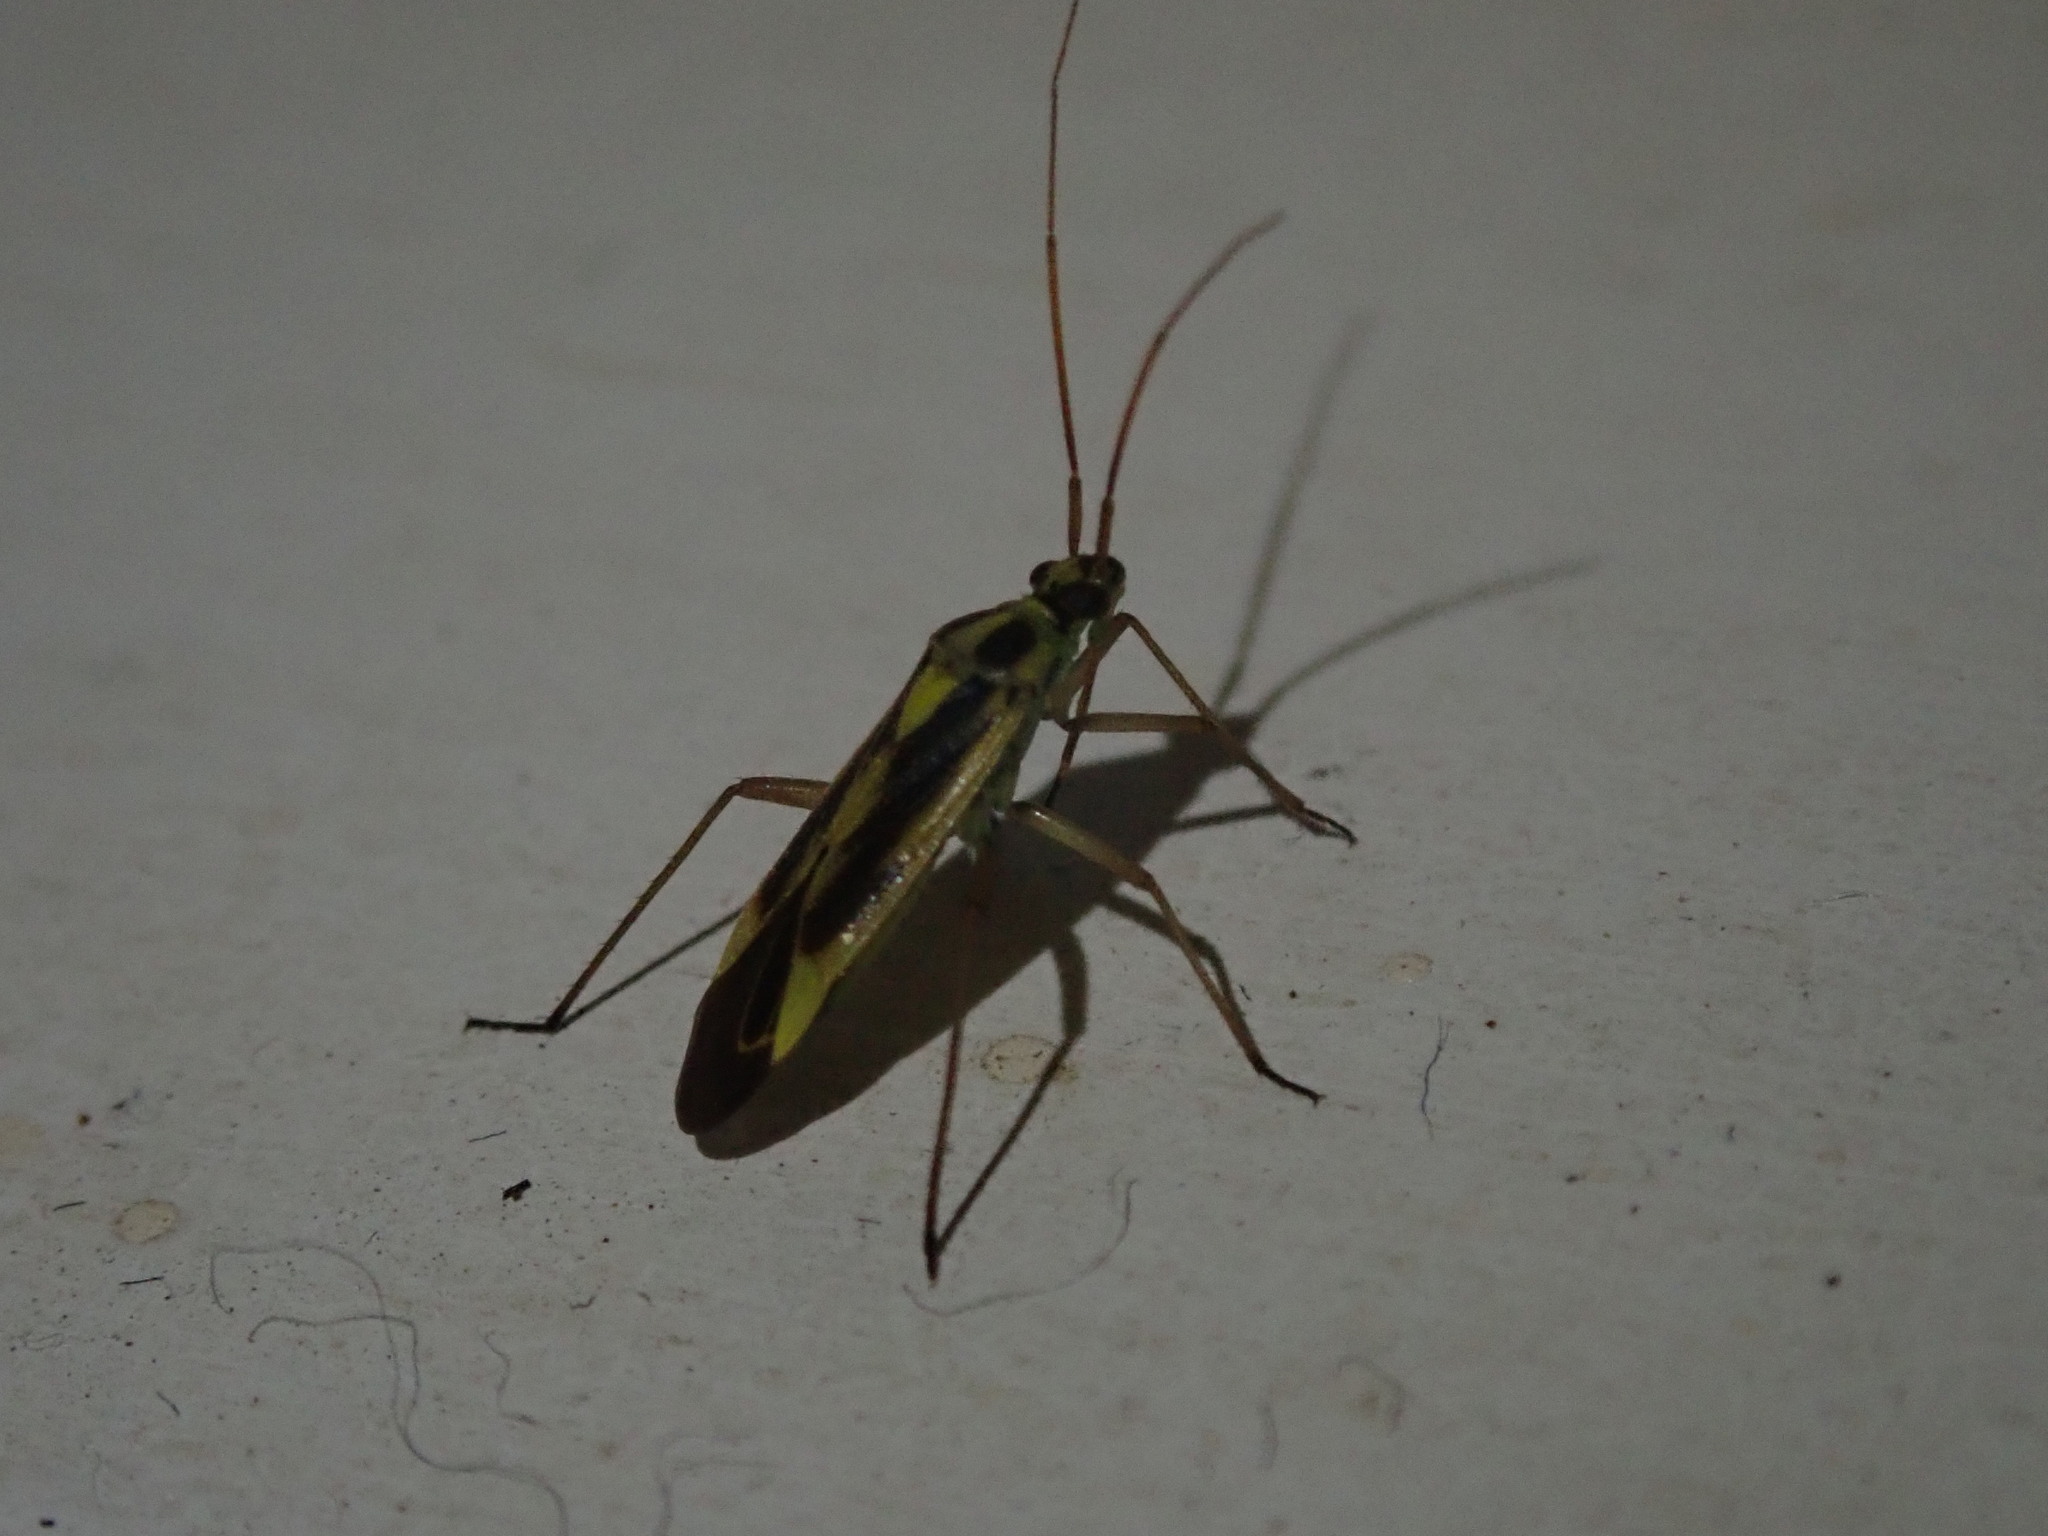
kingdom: Animalia
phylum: Arthropoda
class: Insecta
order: Hemiptera
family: Miridae
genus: Stenotus
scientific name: Stenotus binotatus
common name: Plant bug
